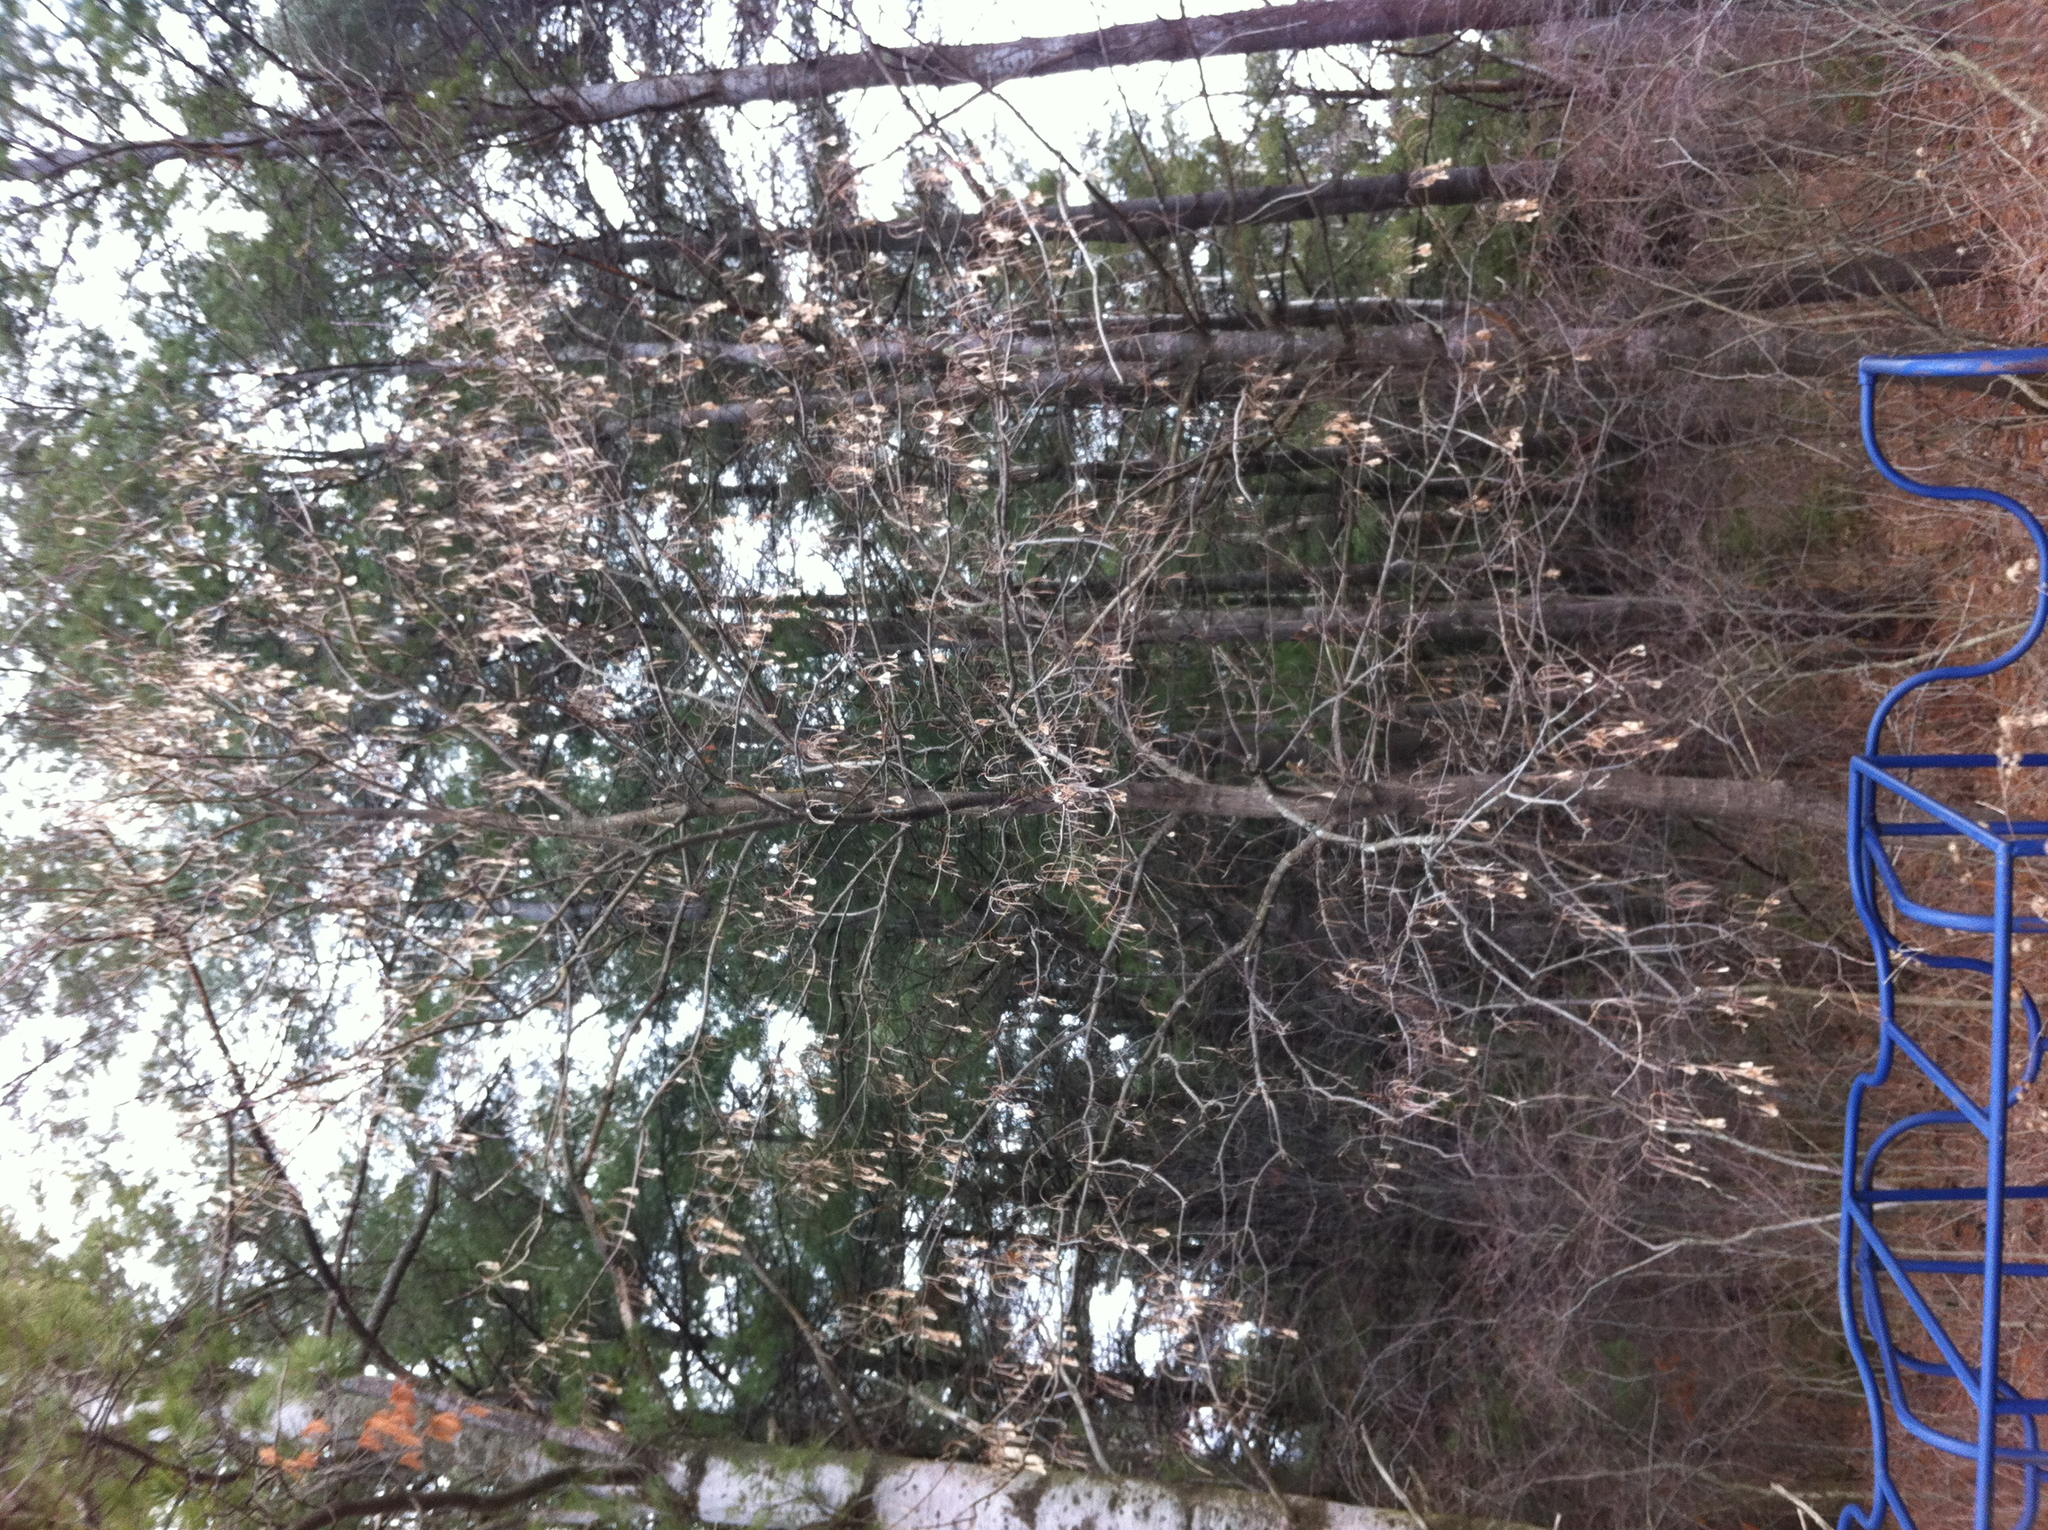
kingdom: Plantae
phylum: Tracheophyta
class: Magnoliopsida
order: Sapindales
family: Sapindaceae
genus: Acer
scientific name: Acer negundo
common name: Ashleaf maple
